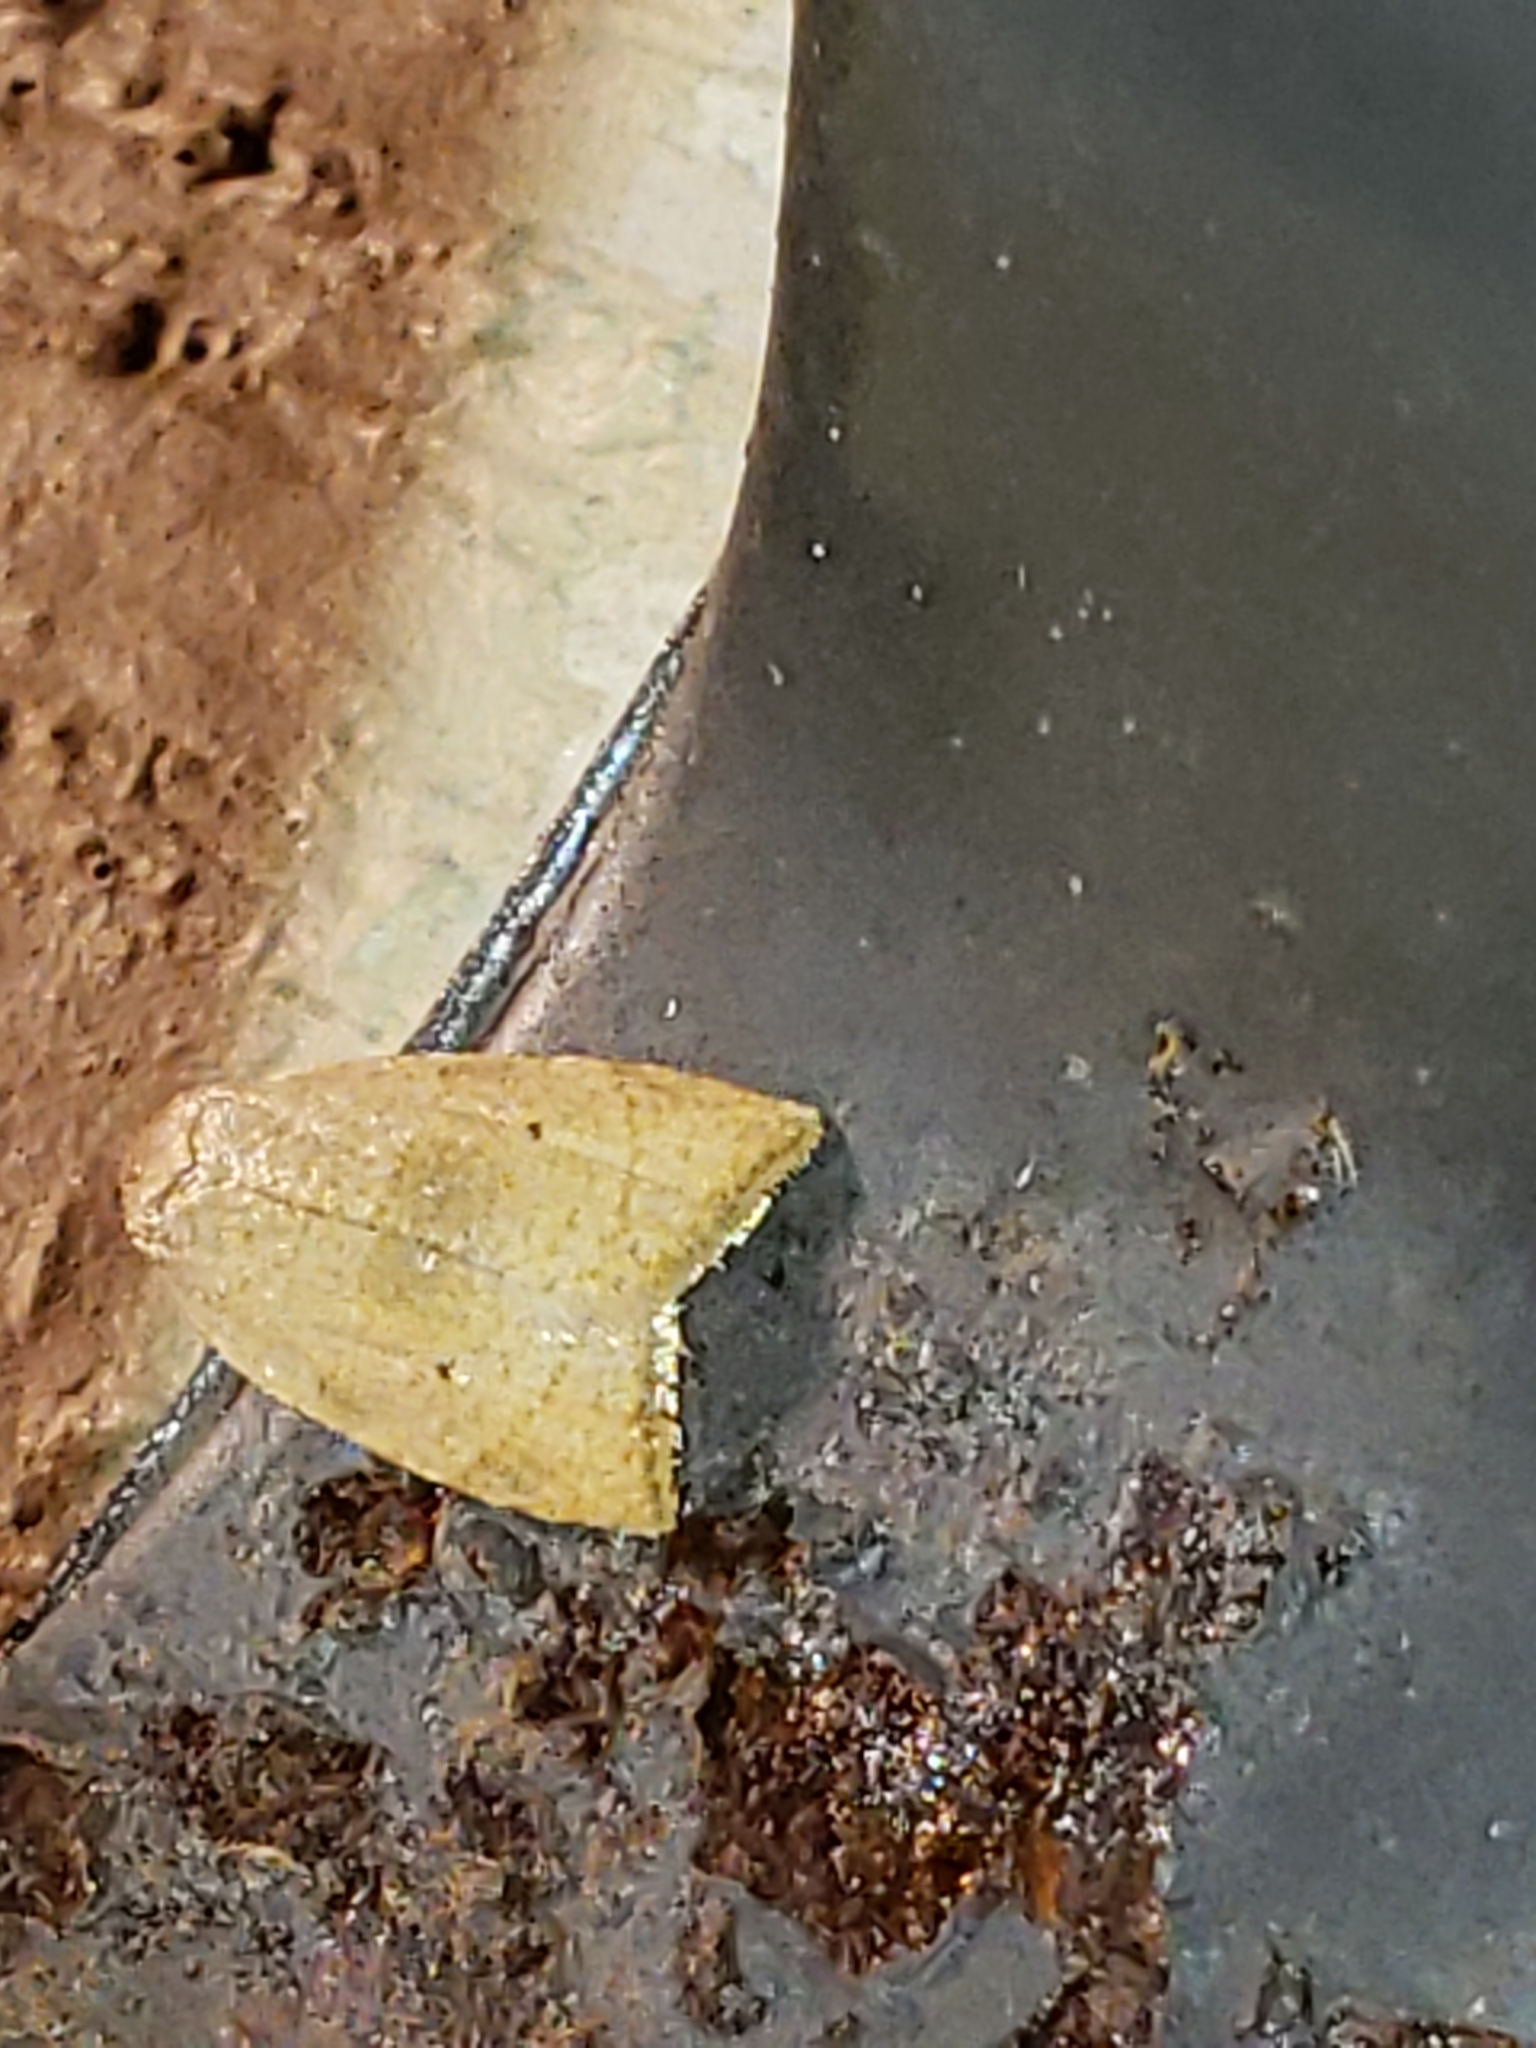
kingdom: Animalia
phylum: Arthropoda
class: Insecta
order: Lepidoptera
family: Tortricidae
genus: Coelostathma
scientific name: Coelostathma discopunctana
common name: Batman moth
